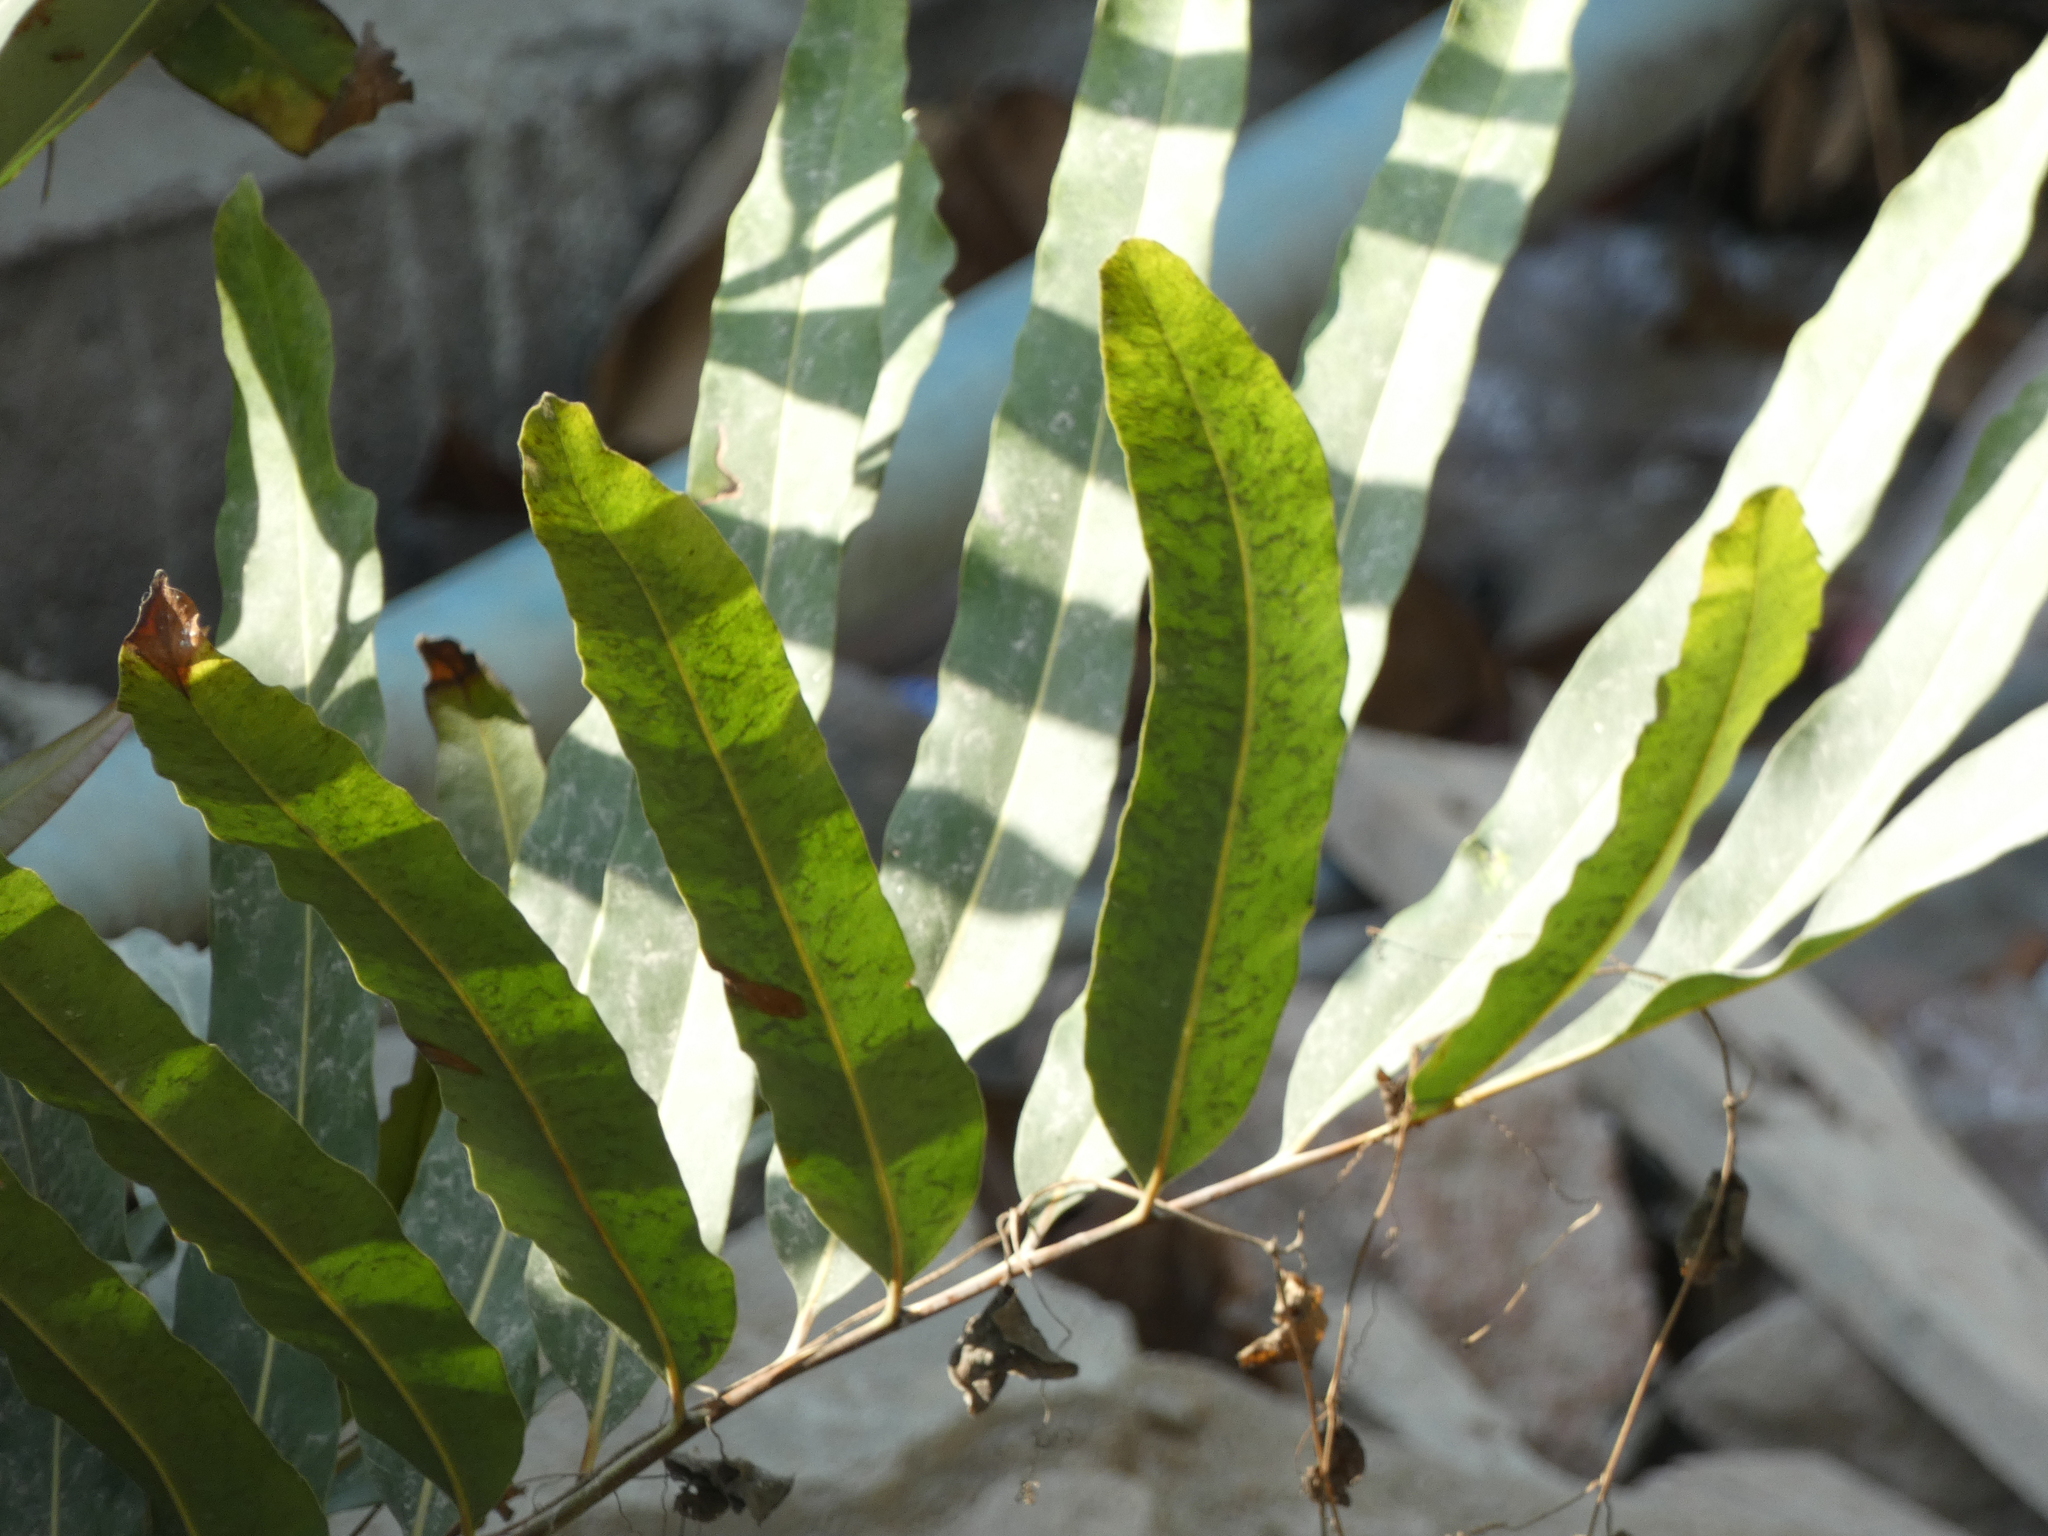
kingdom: Plantae
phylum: Tracheophyta
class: Polypodiopsida
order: Polypodiales
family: Pteridaceae
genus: Acrostichum
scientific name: Acrostichum aureum
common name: Leather fern
